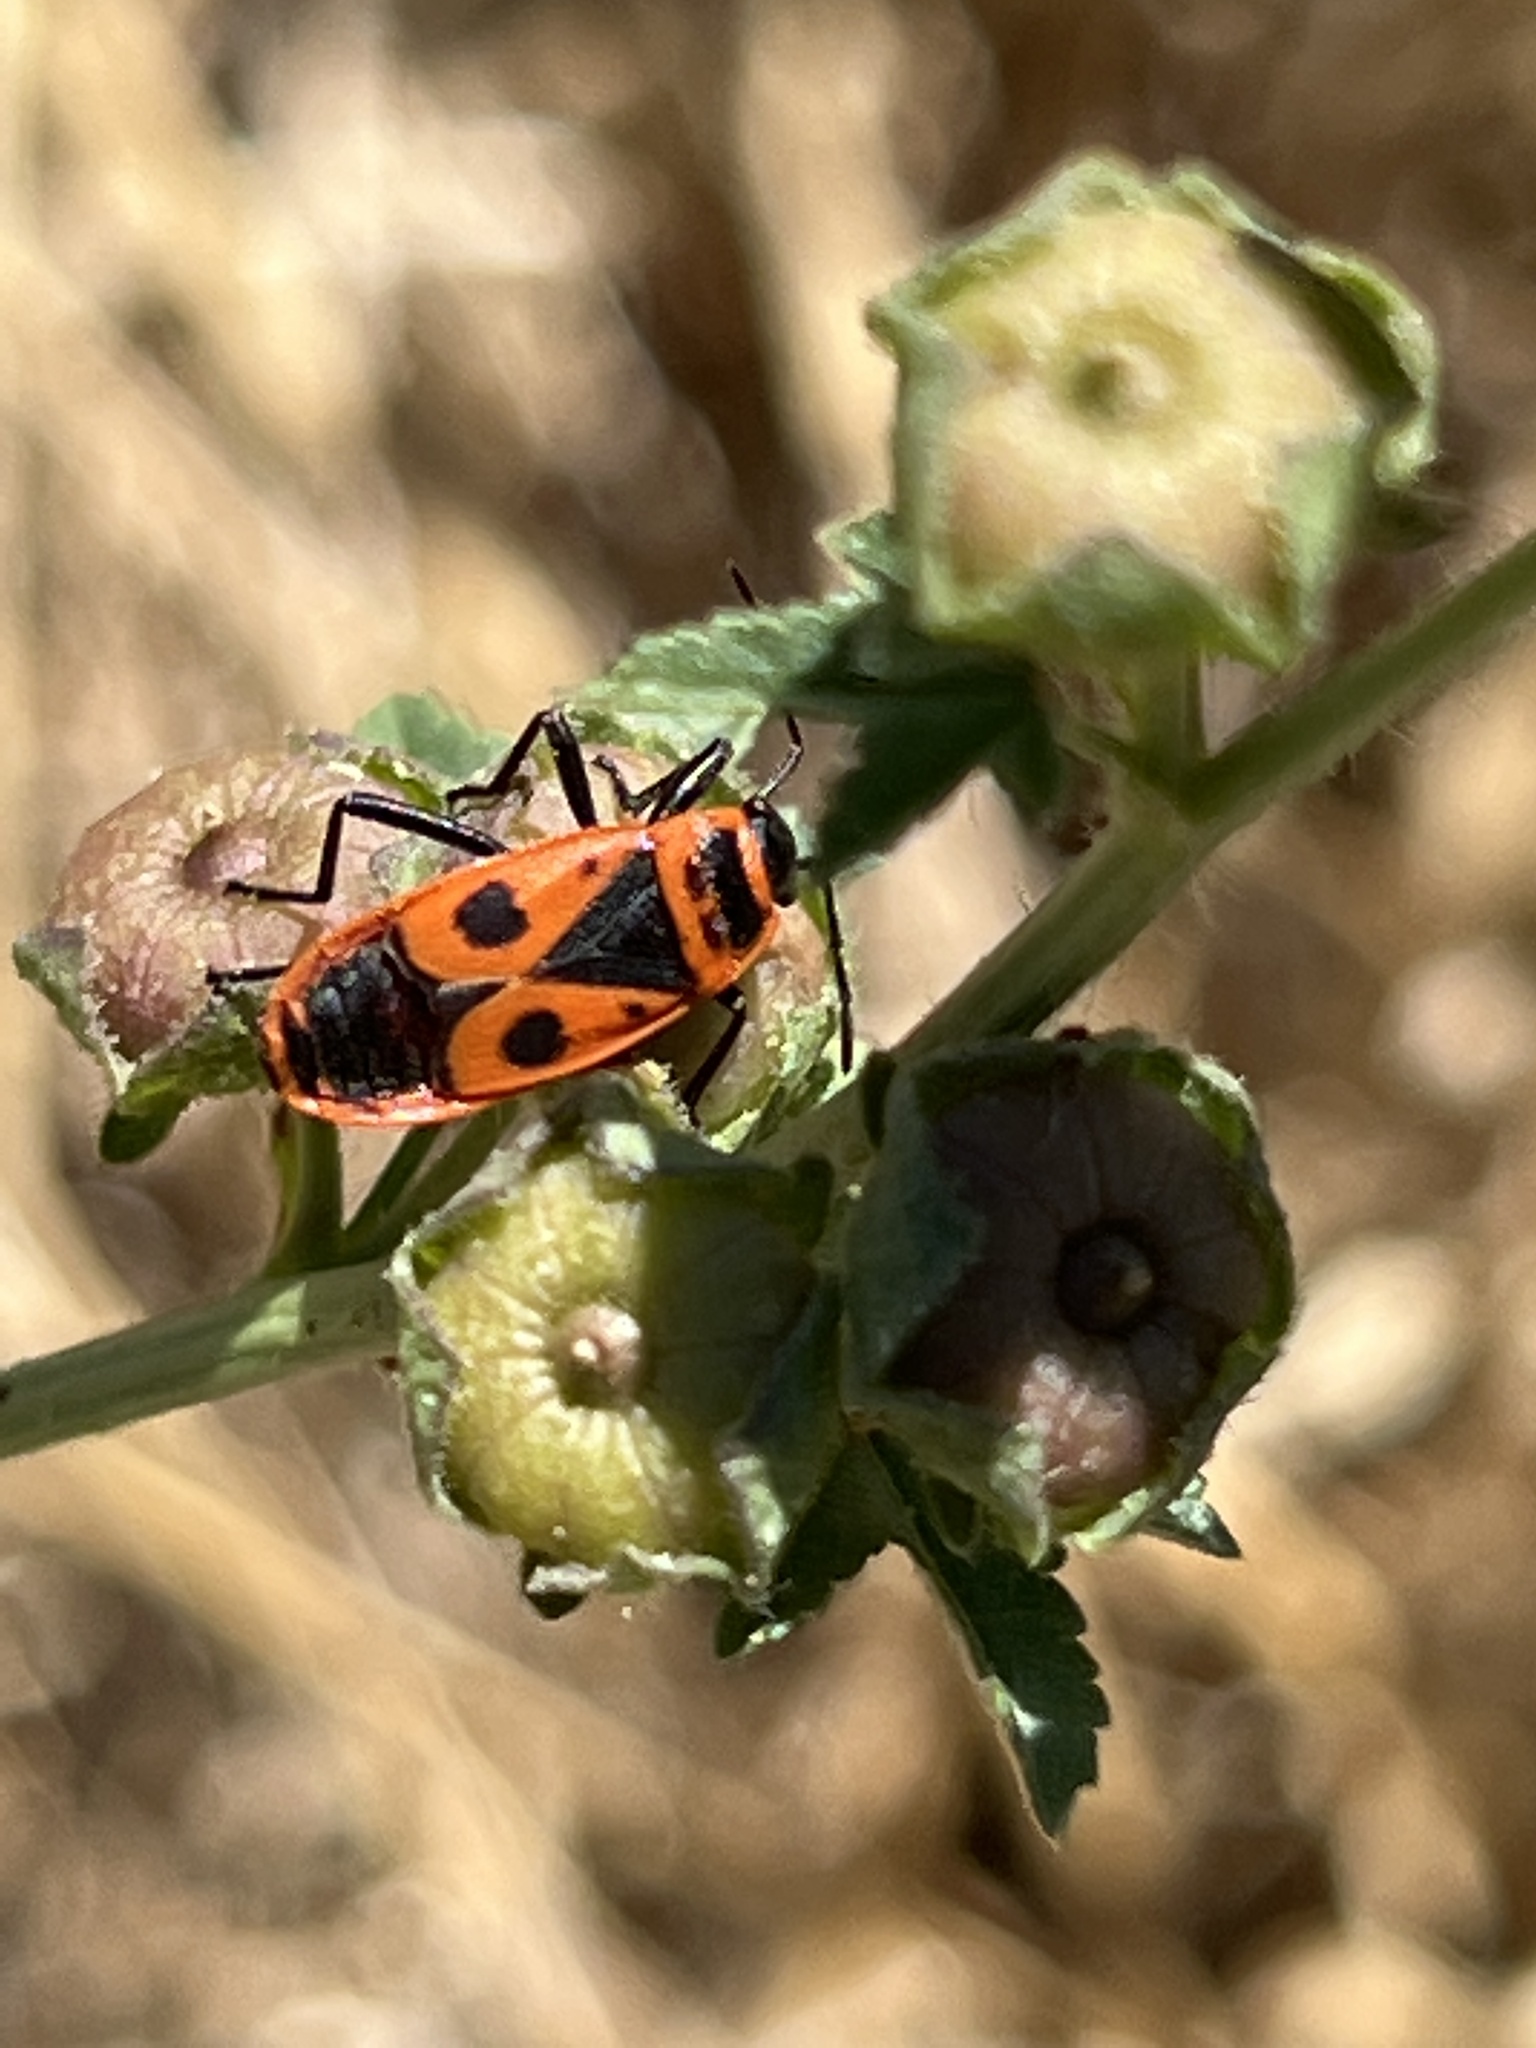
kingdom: Animalia
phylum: Arthropoda
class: Insecta
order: Hemiptera
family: Pyrrhocoridae
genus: Pyrrhocoris
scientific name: Pyrrhocoris apterus
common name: Firebug
